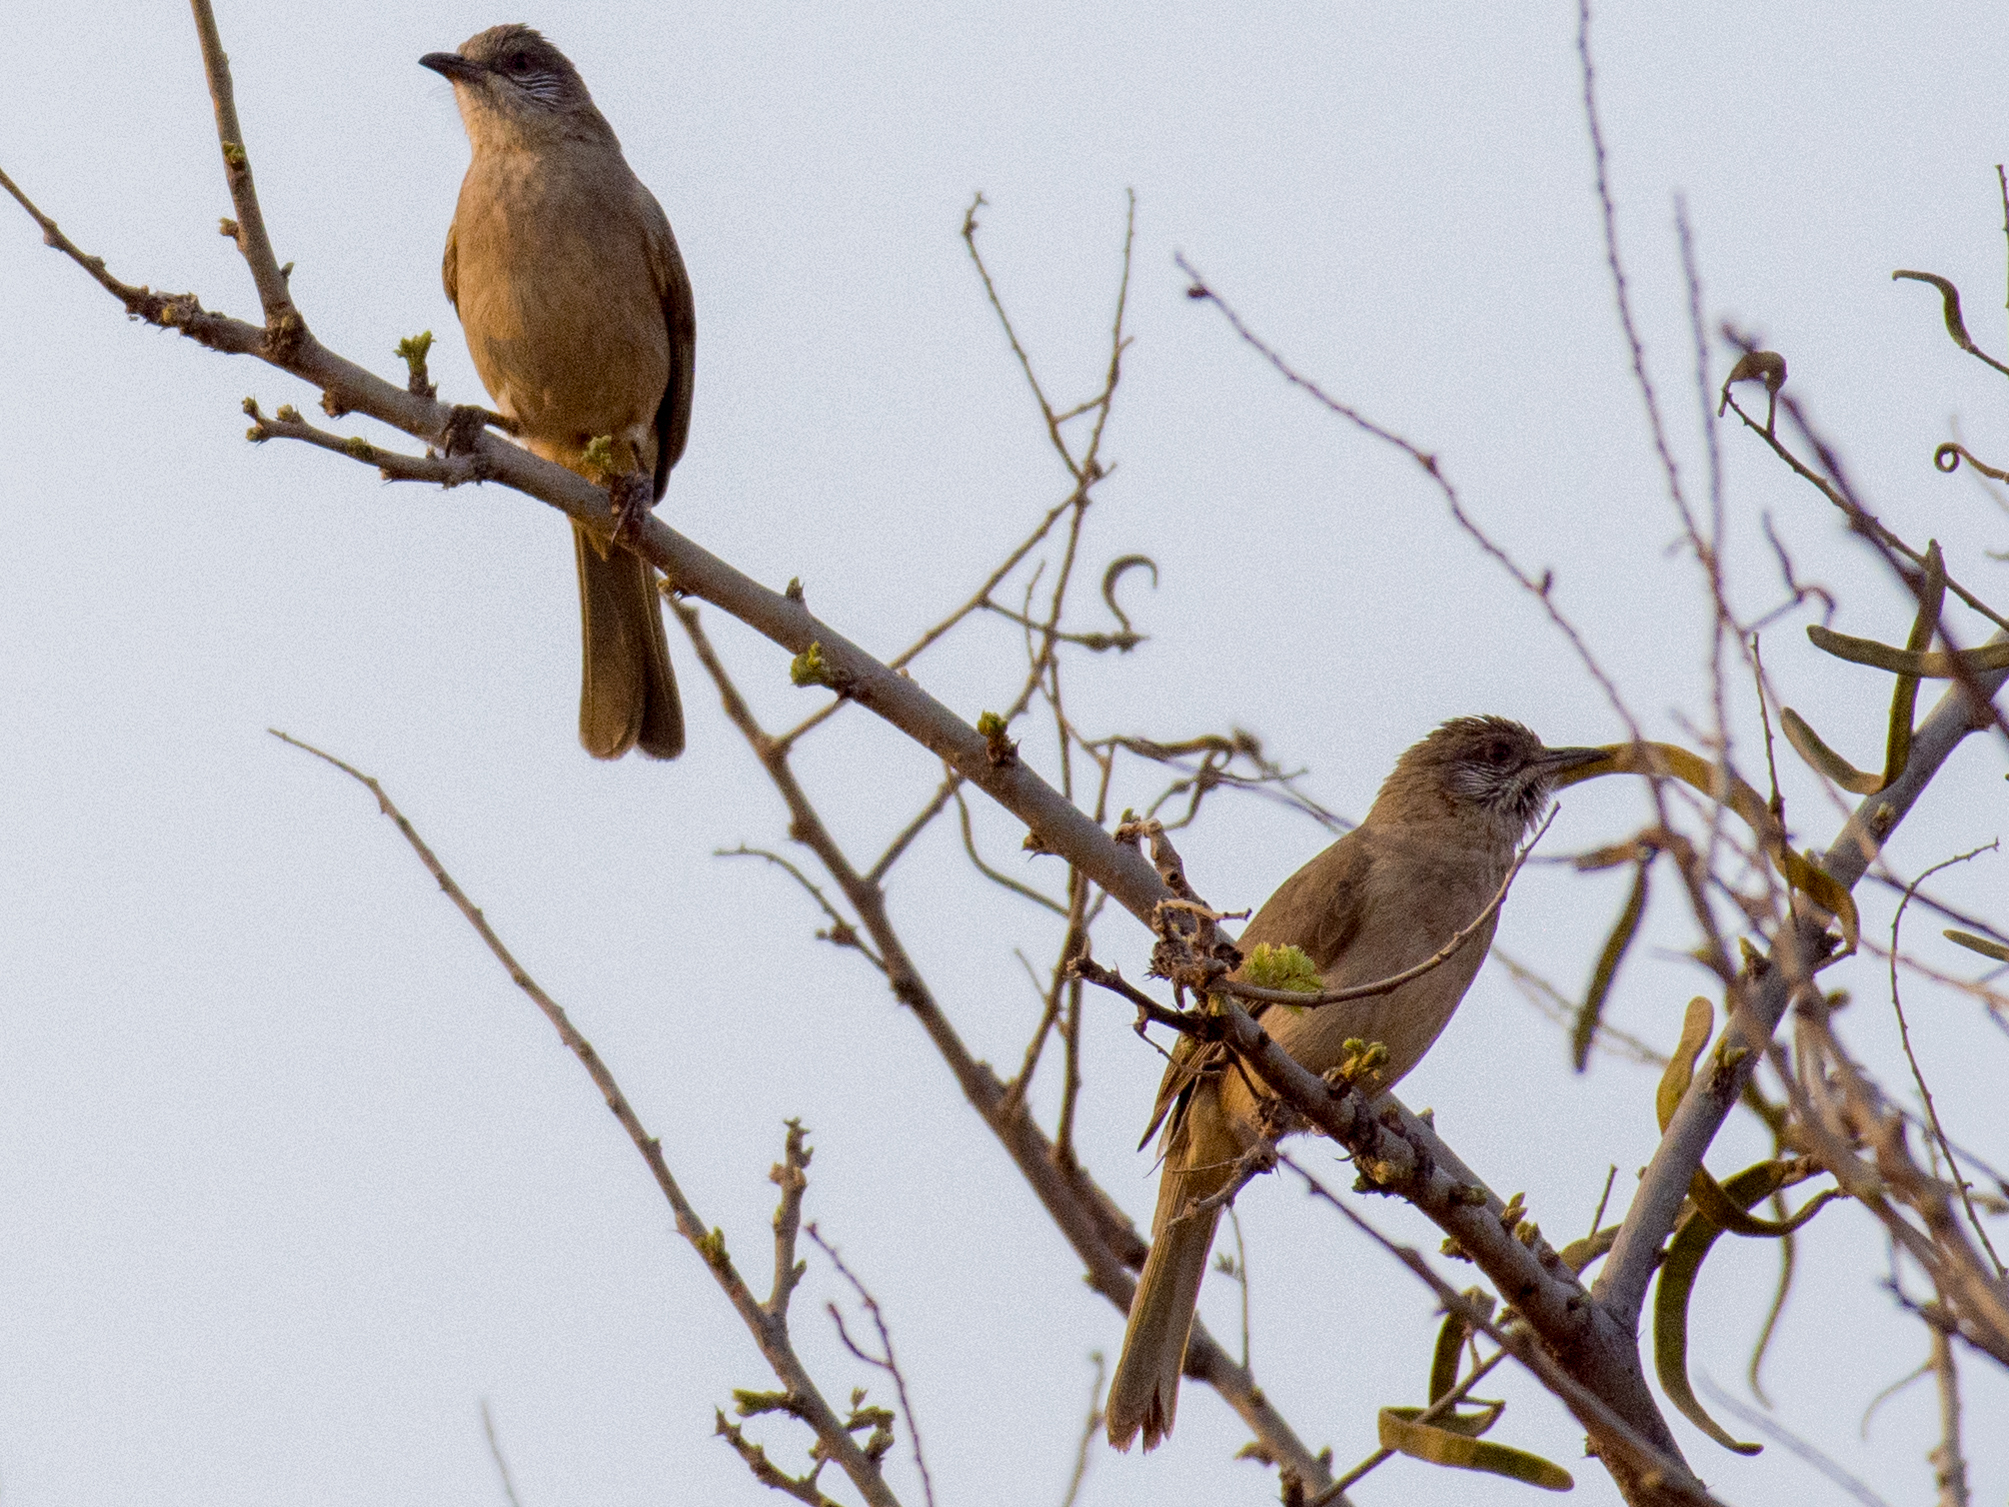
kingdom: Animalia
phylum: Chordata
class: Aves
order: Passeriformes
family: Pycnonotidae
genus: Pycnonotus
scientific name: Pycnonotus blanfordi
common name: Streak-eared bulbul
